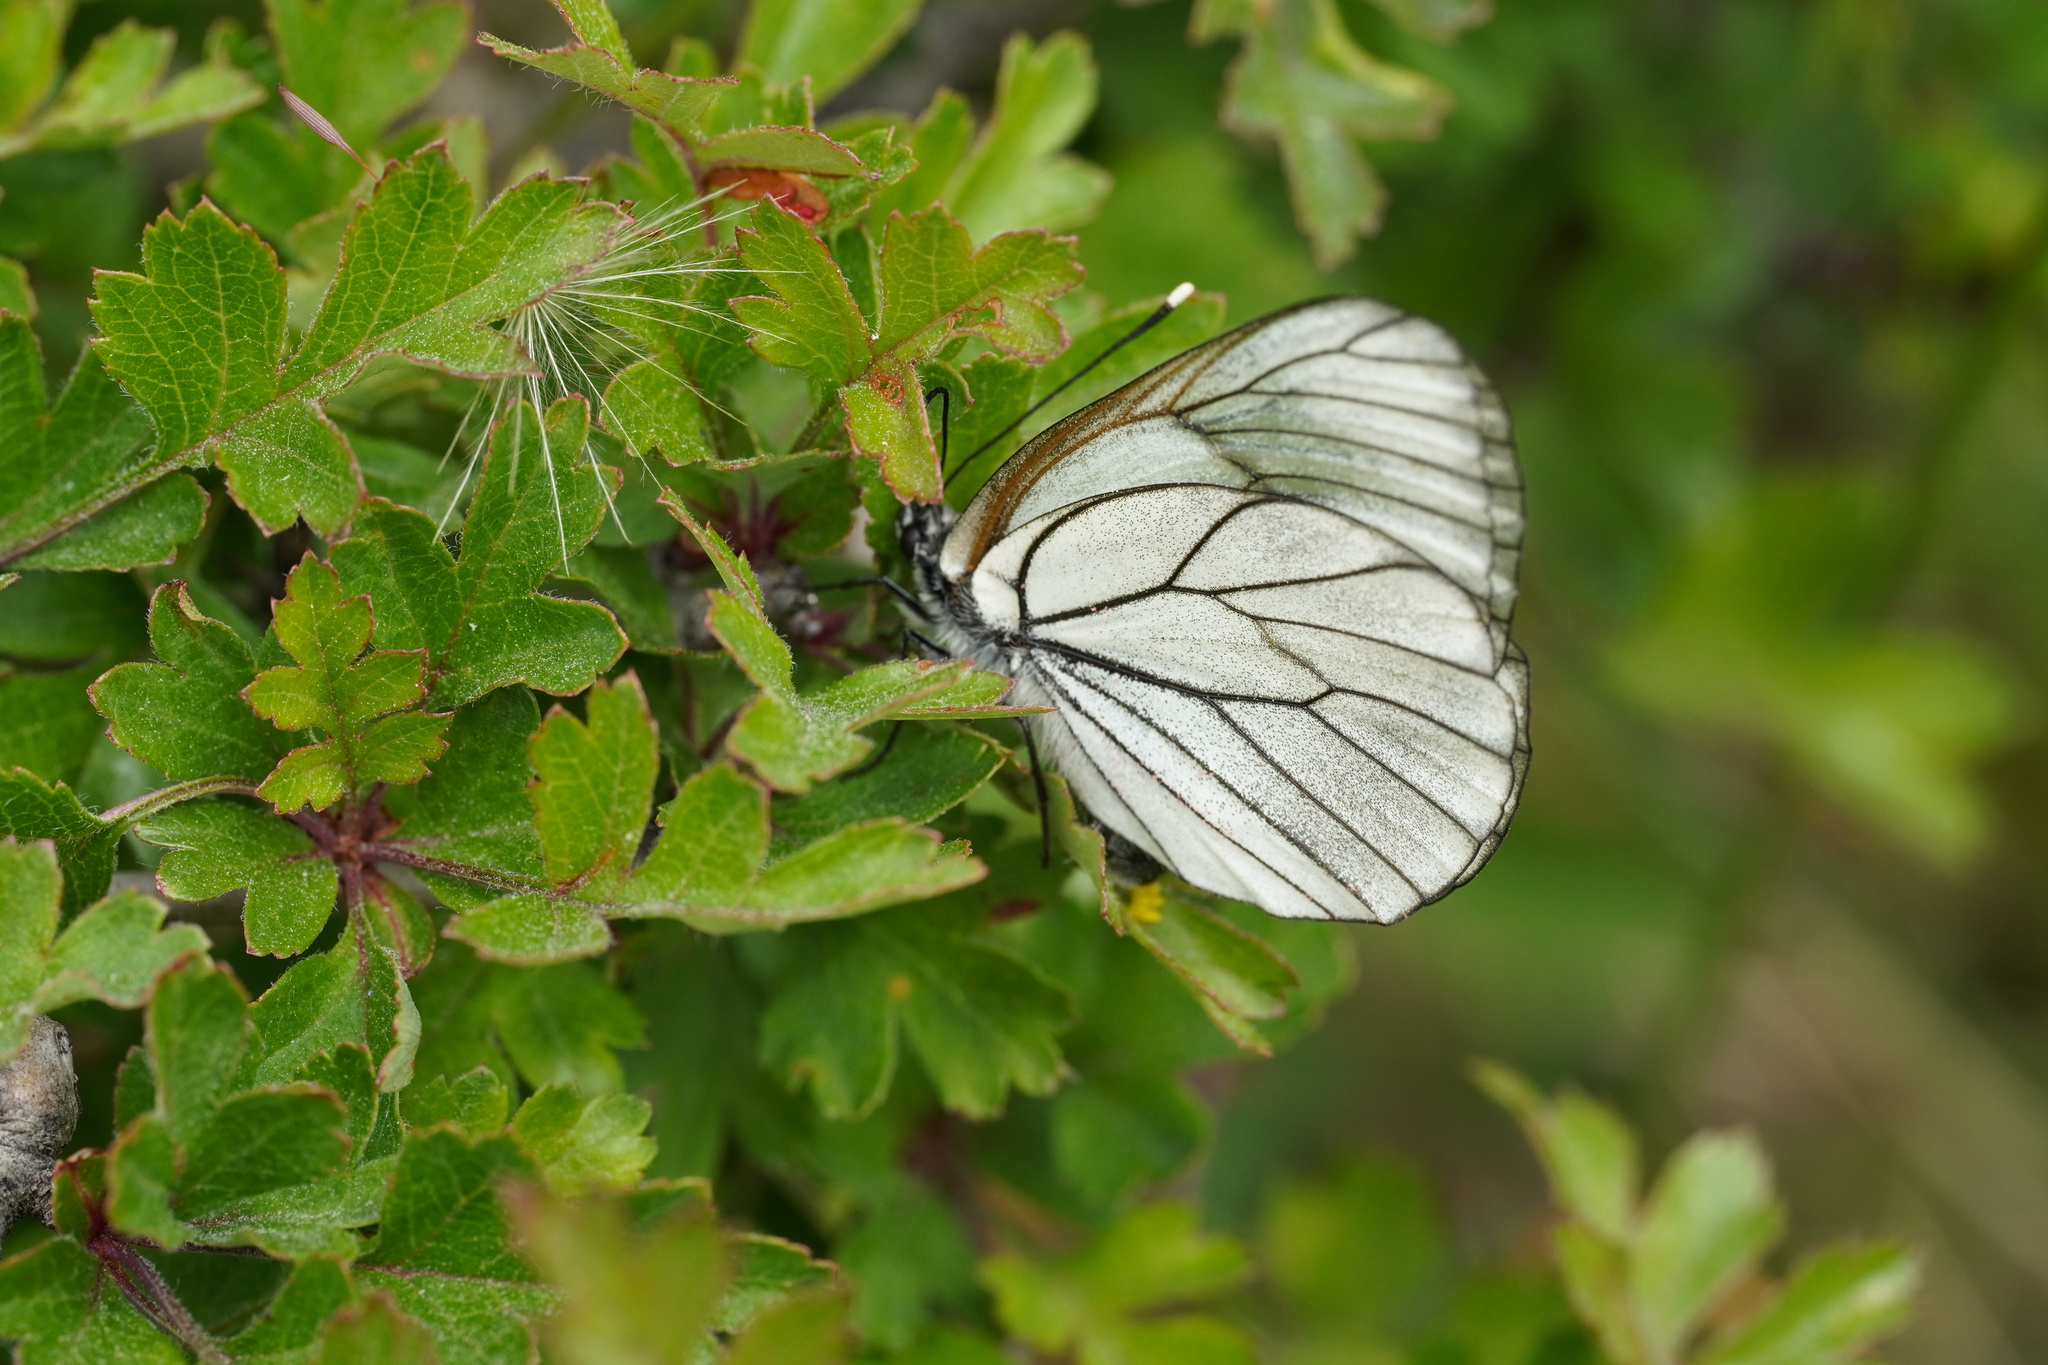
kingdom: Animalia
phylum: Arthropoda
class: Insecta
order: Lepidoptera
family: Pieridae
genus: Aporia
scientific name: Aporia crataegi
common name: Black-veined white
